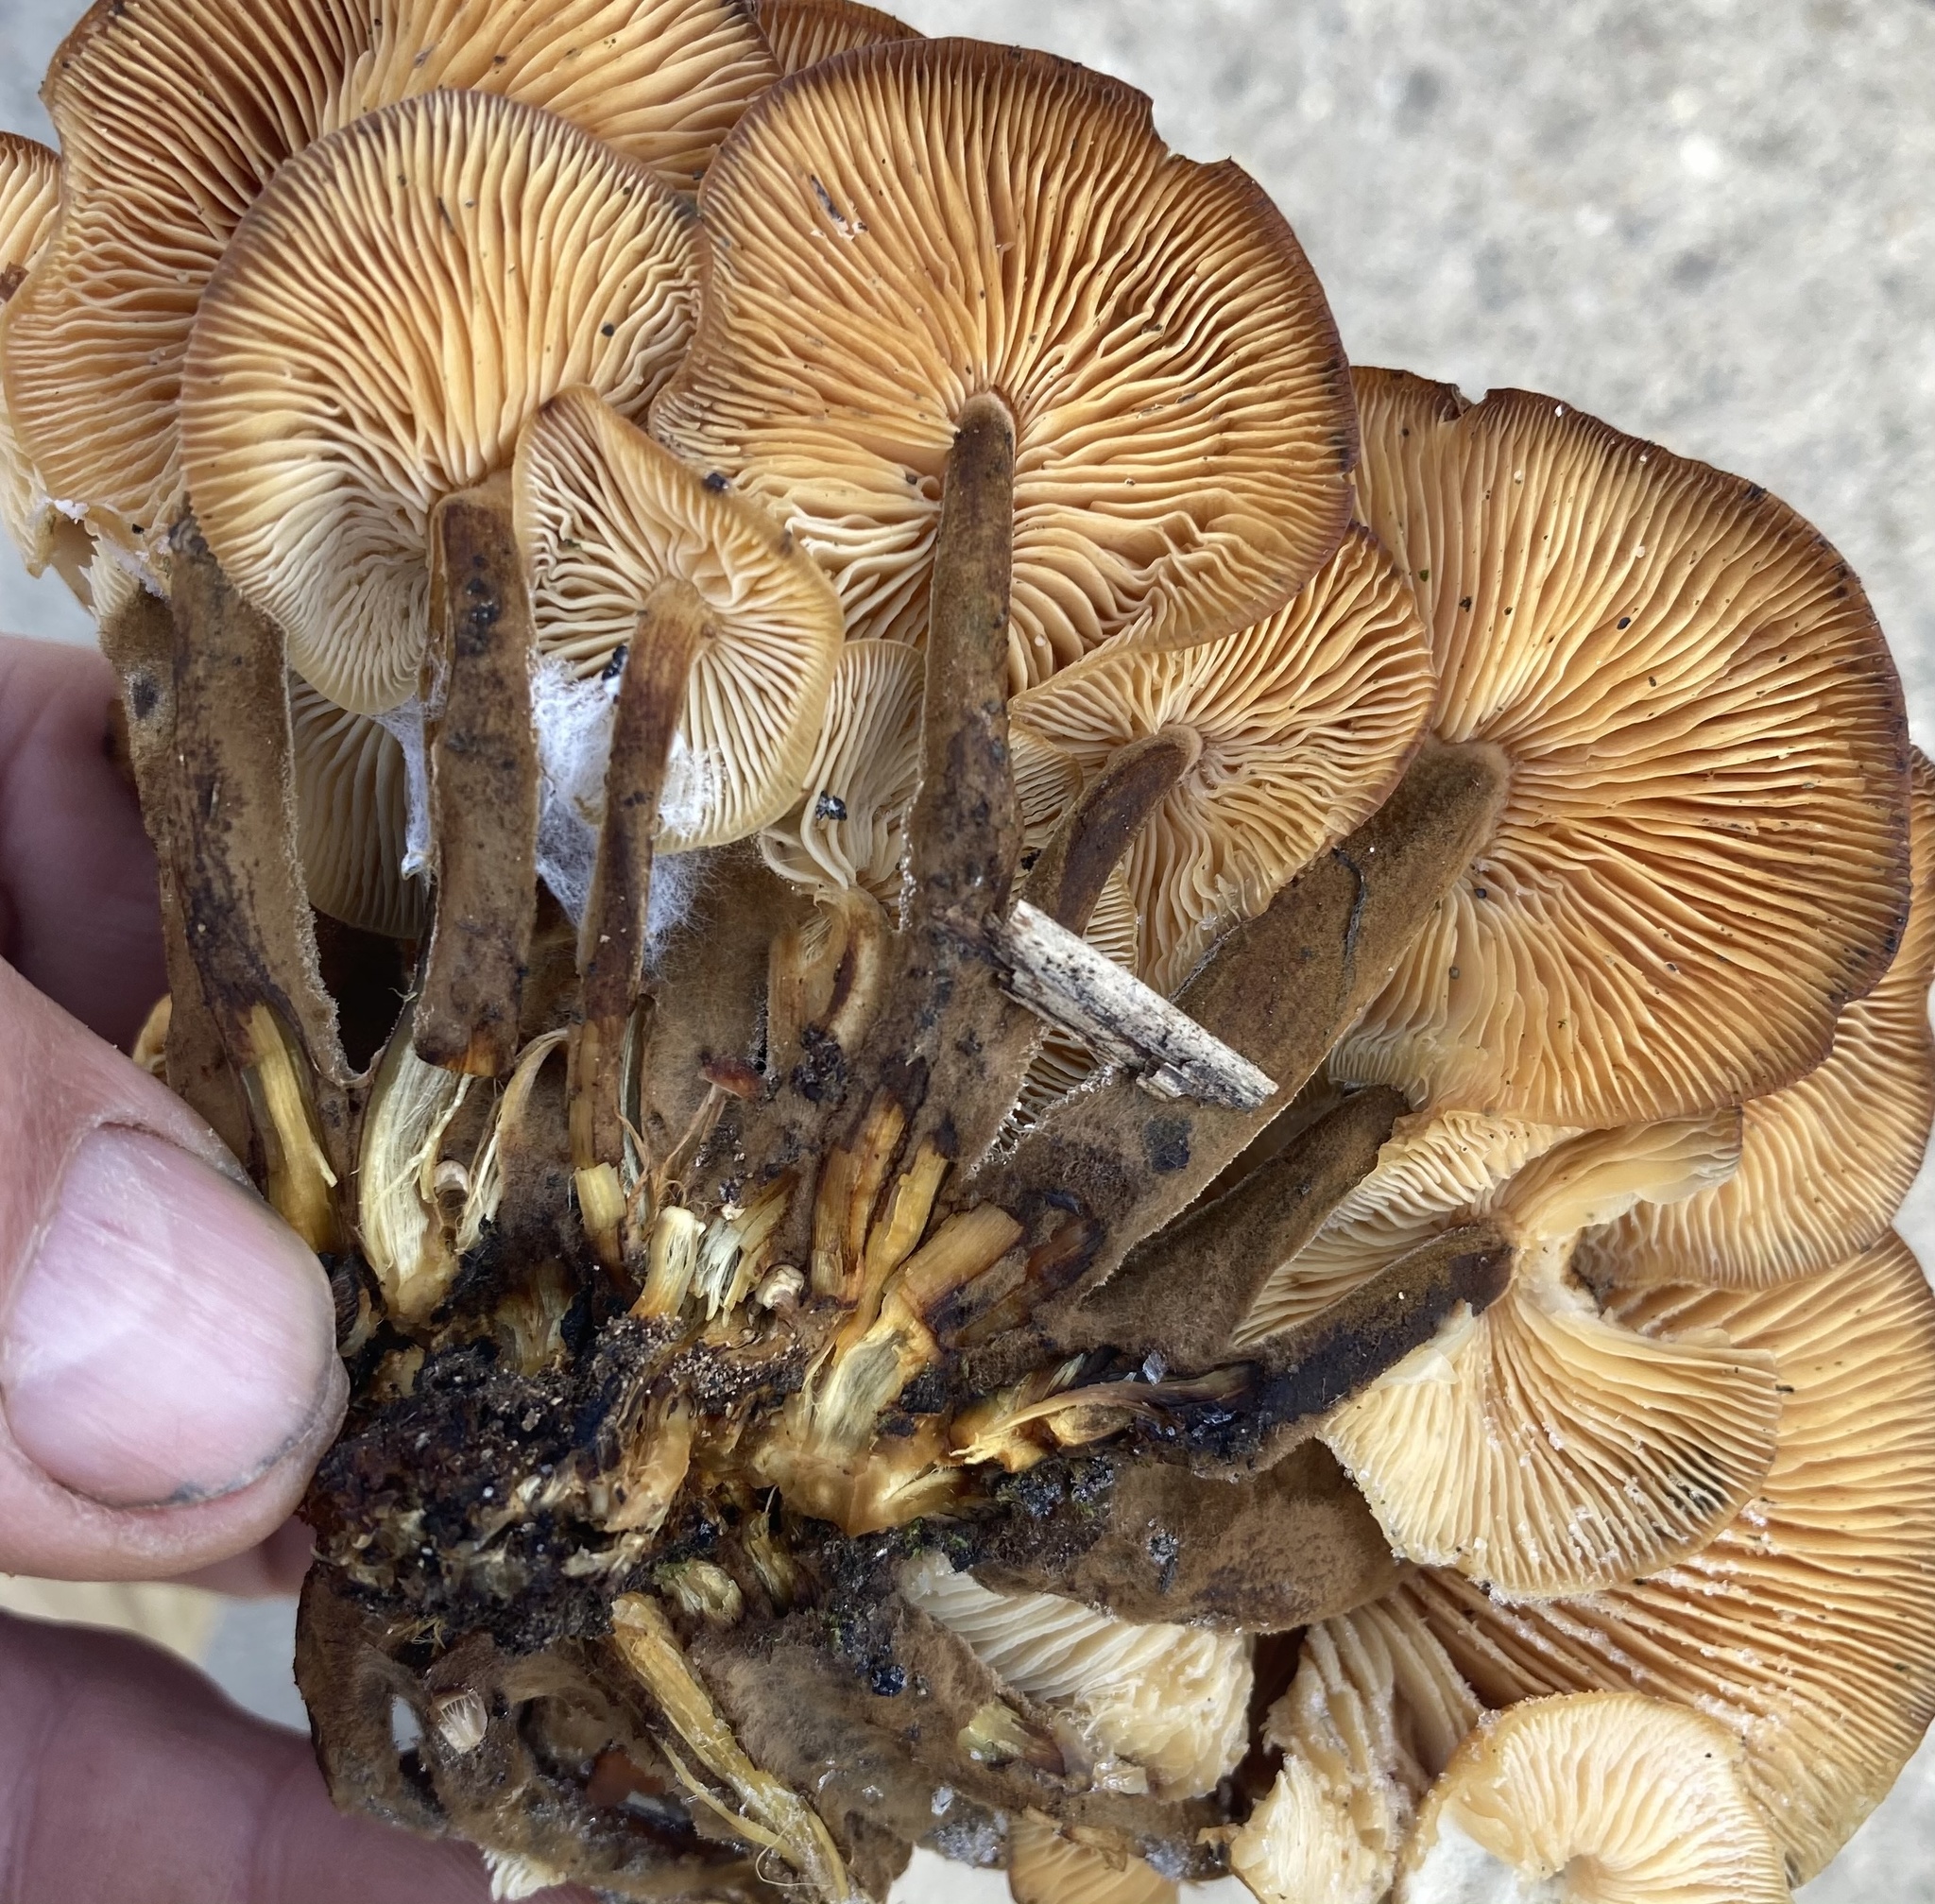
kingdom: Fungi
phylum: Basidiomycota
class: Agaricomycetes
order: Agaricales
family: Physalacriaceae
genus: Flammulina
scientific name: Flammulina velutipes
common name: Velvet shank
